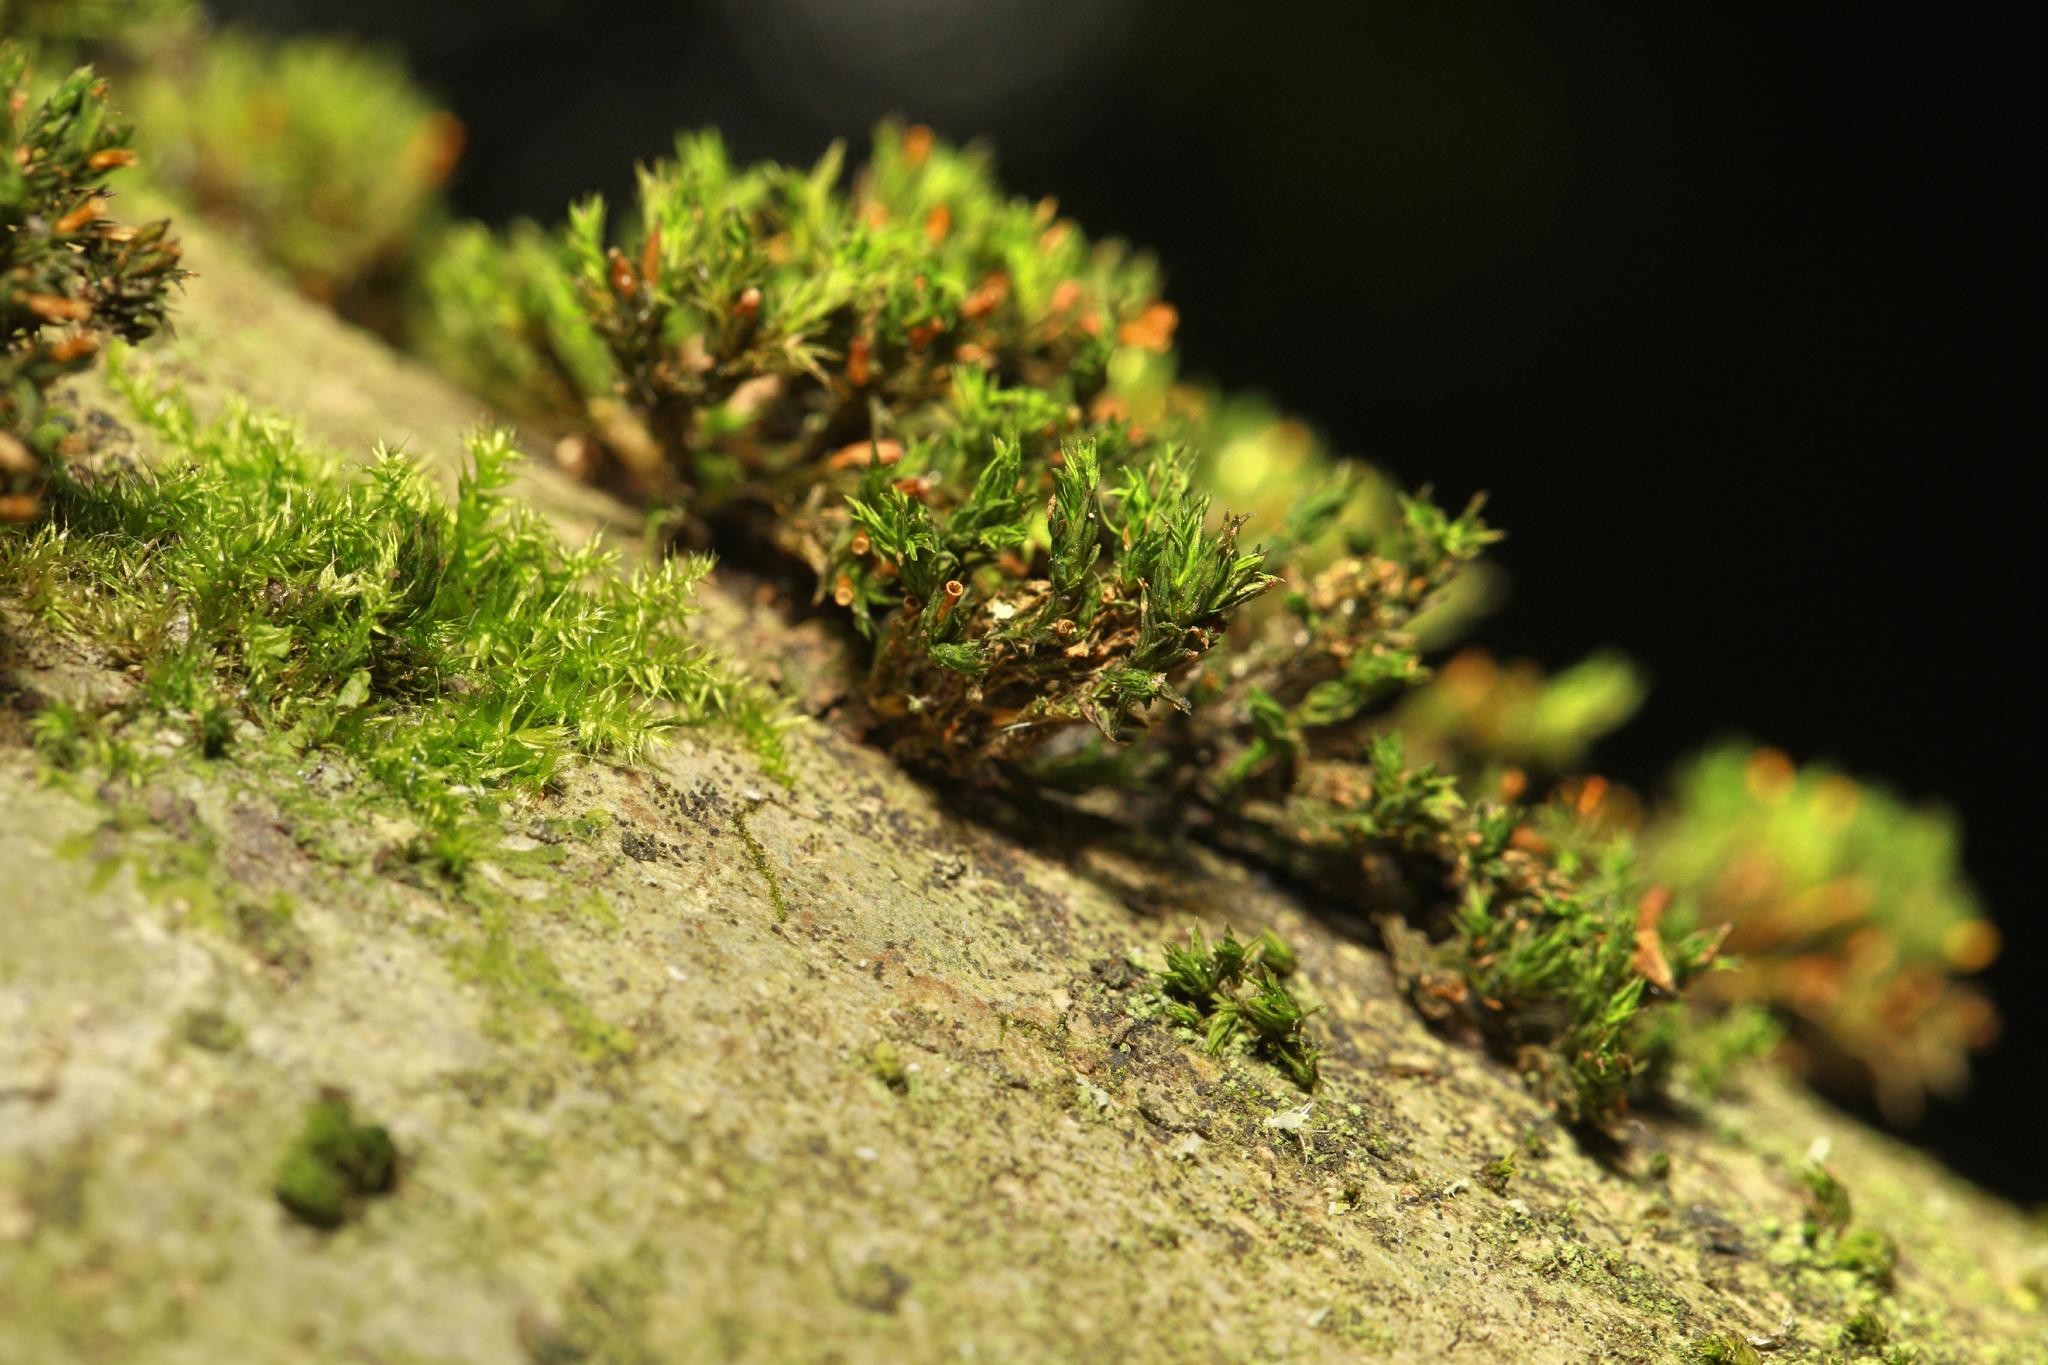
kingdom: Plantae
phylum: Bryophyta
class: Bryopsida
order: Orthotrichales
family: Orthotrichaceae
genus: Lewinskya
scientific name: Lewinskya affinis
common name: Wood bristle-moss
